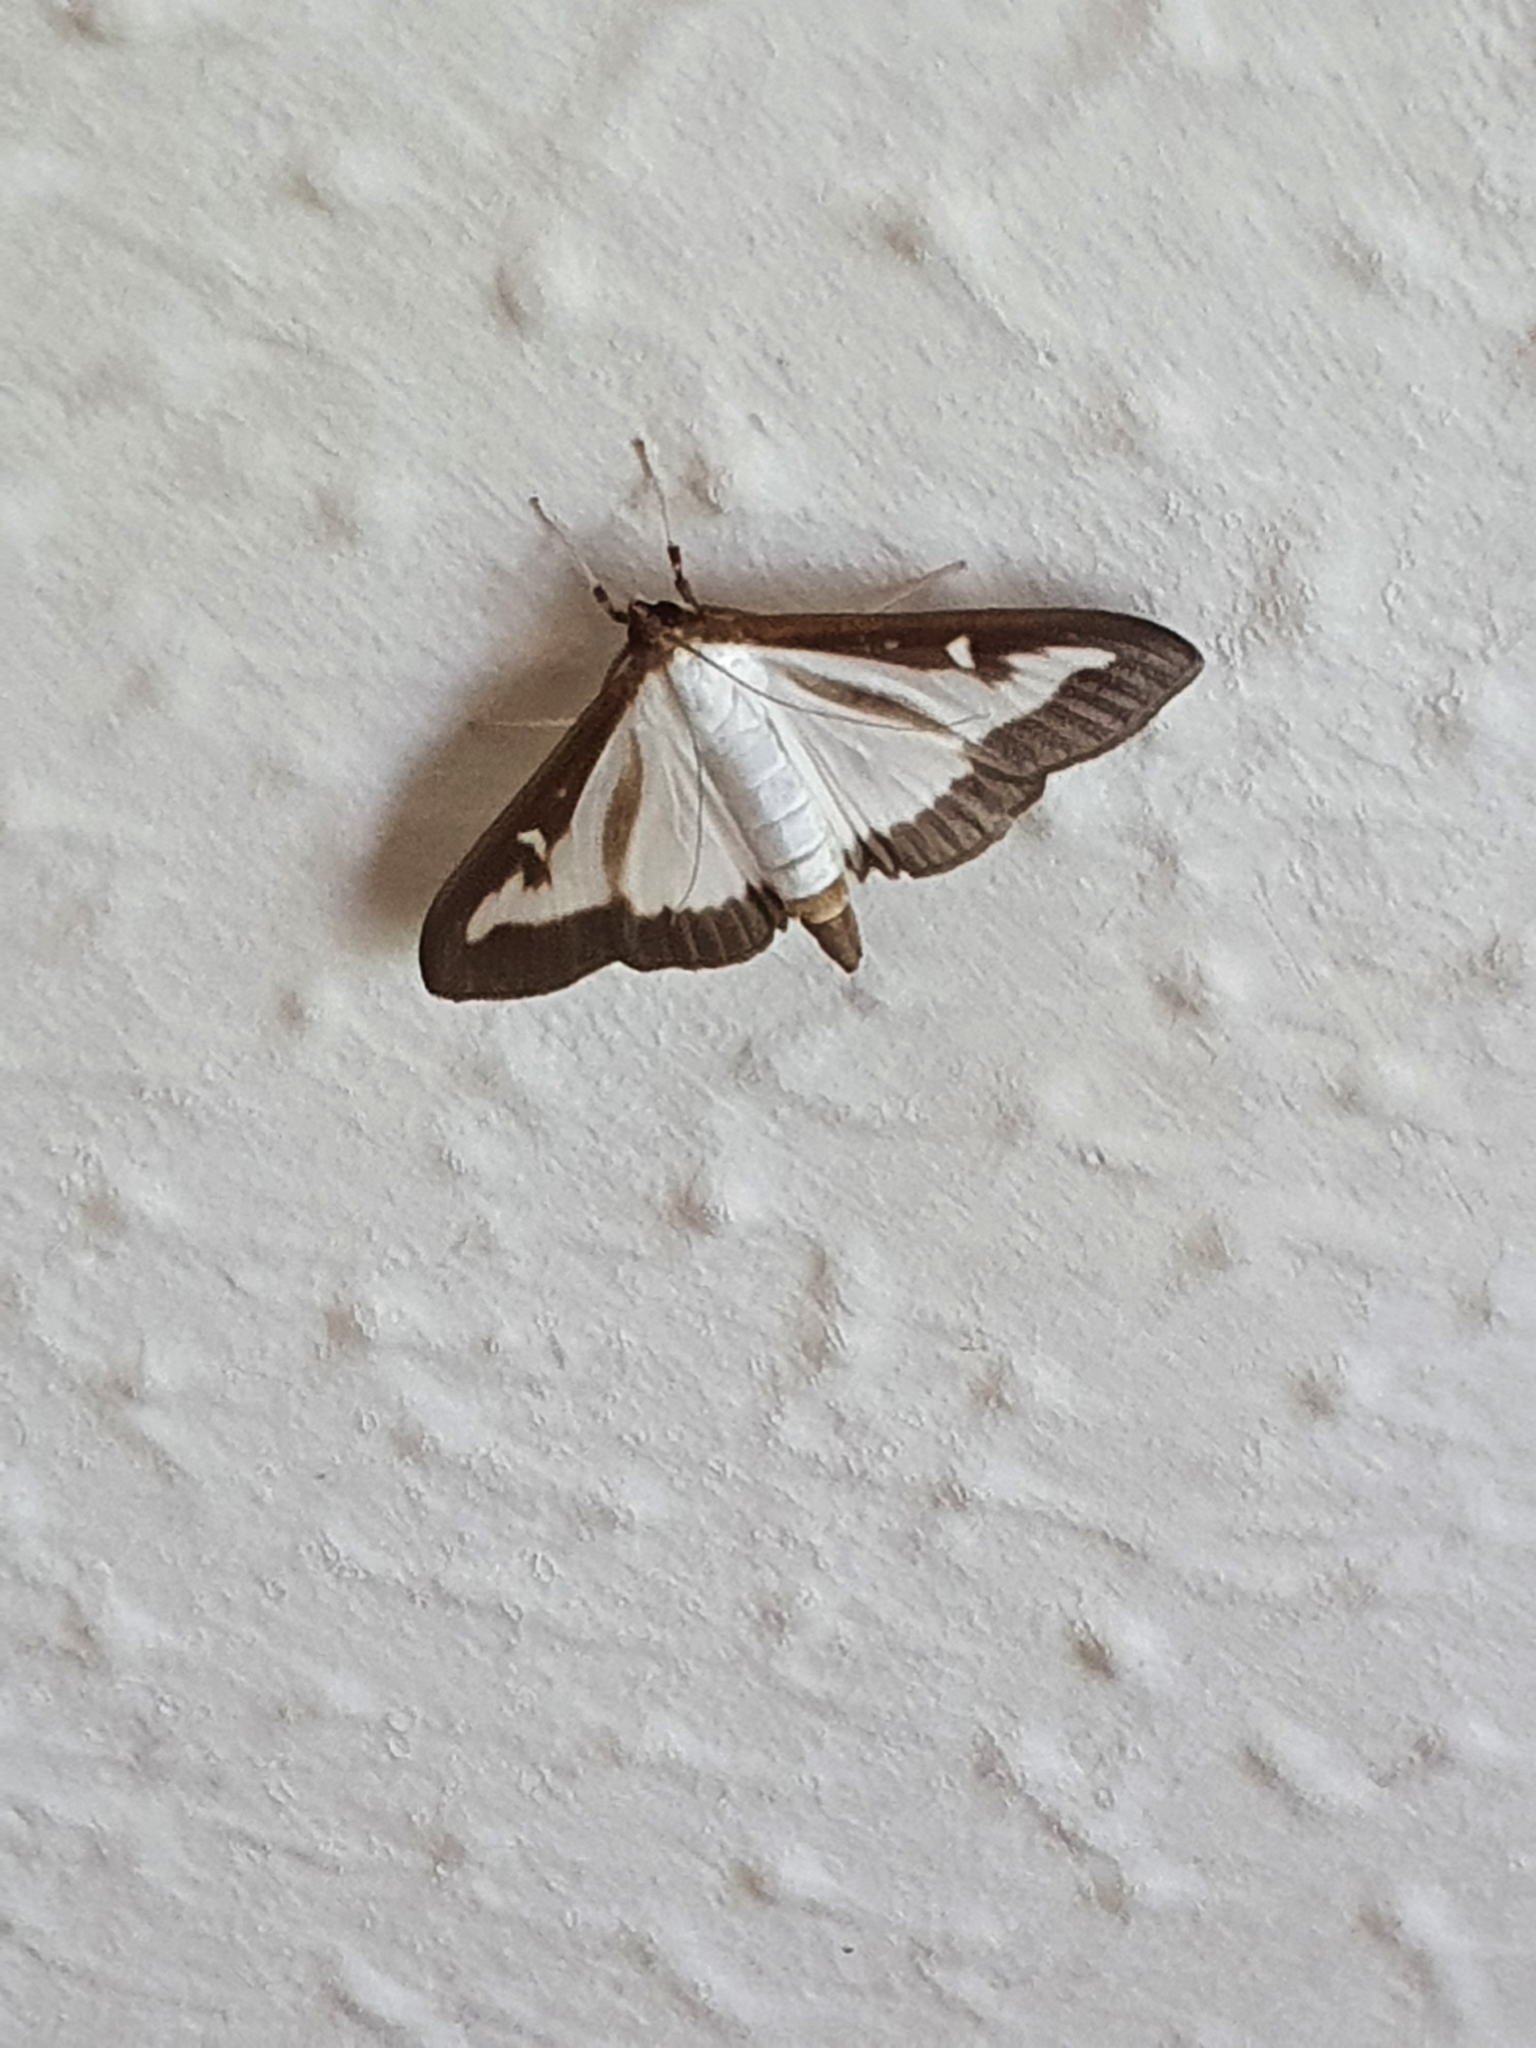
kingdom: Animalia
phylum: Arthropoda
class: Insecta
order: Lepidoptera
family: Crambidae
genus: Cydalima
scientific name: Cydalima perspectalis
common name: Box tree moth
